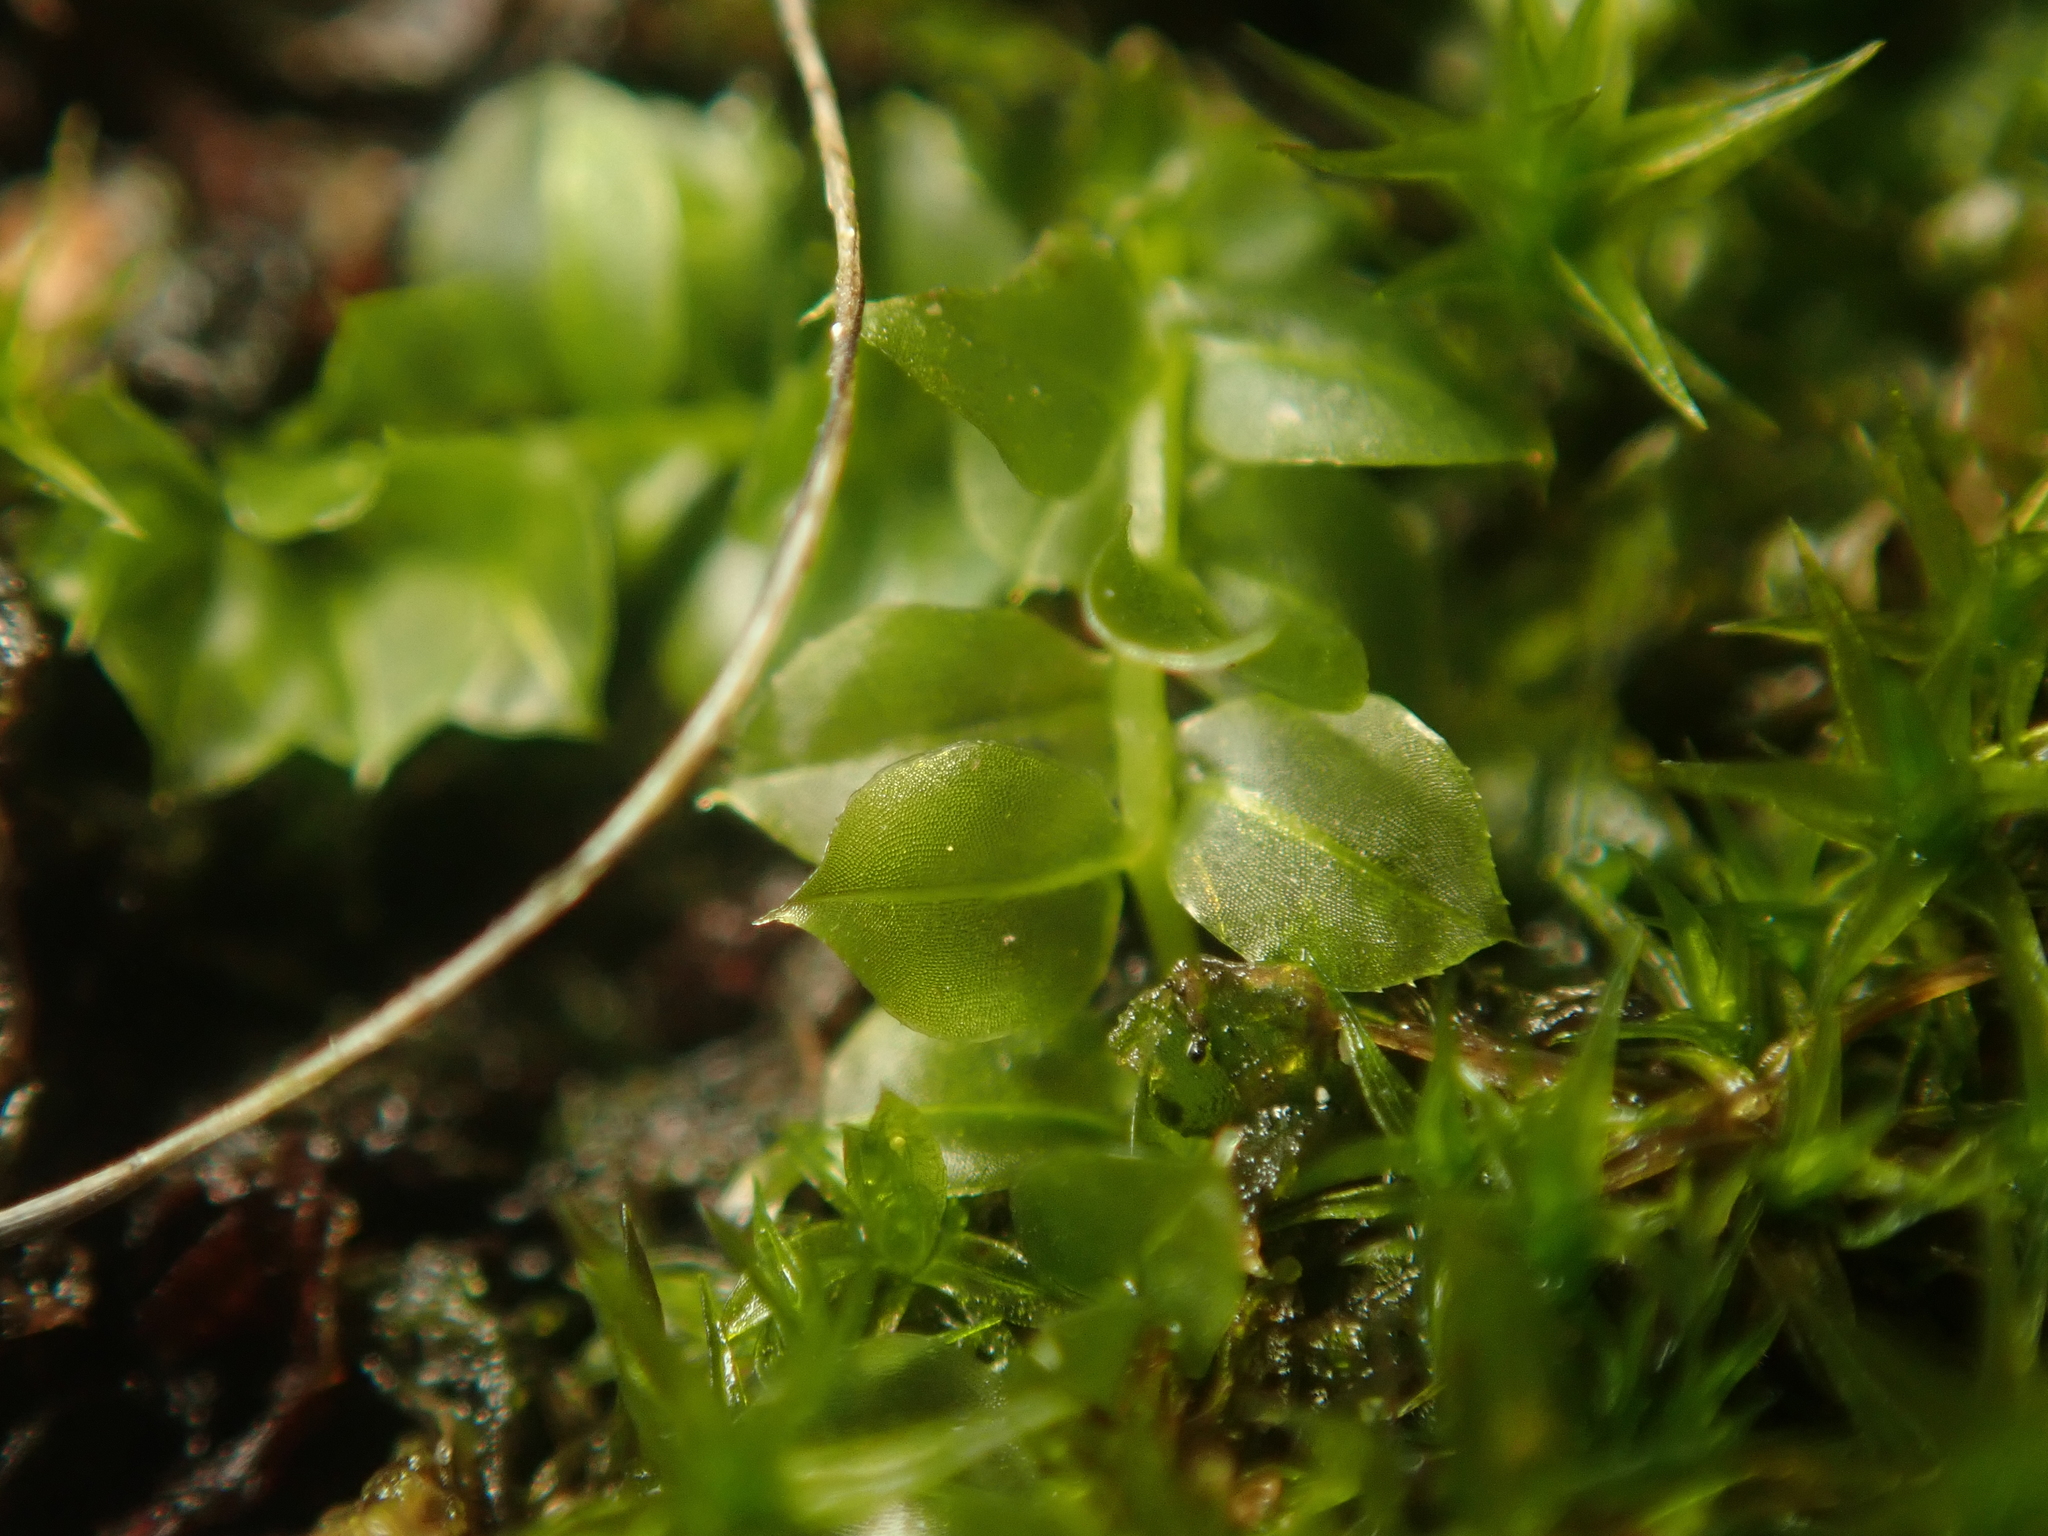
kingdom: Plantae
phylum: Bryophyta
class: Bryopsida
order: Bryales
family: Mniaceae
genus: Plagiomnium
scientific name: Plagiomnium cuspidatum
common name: Woodsy leafy moss
